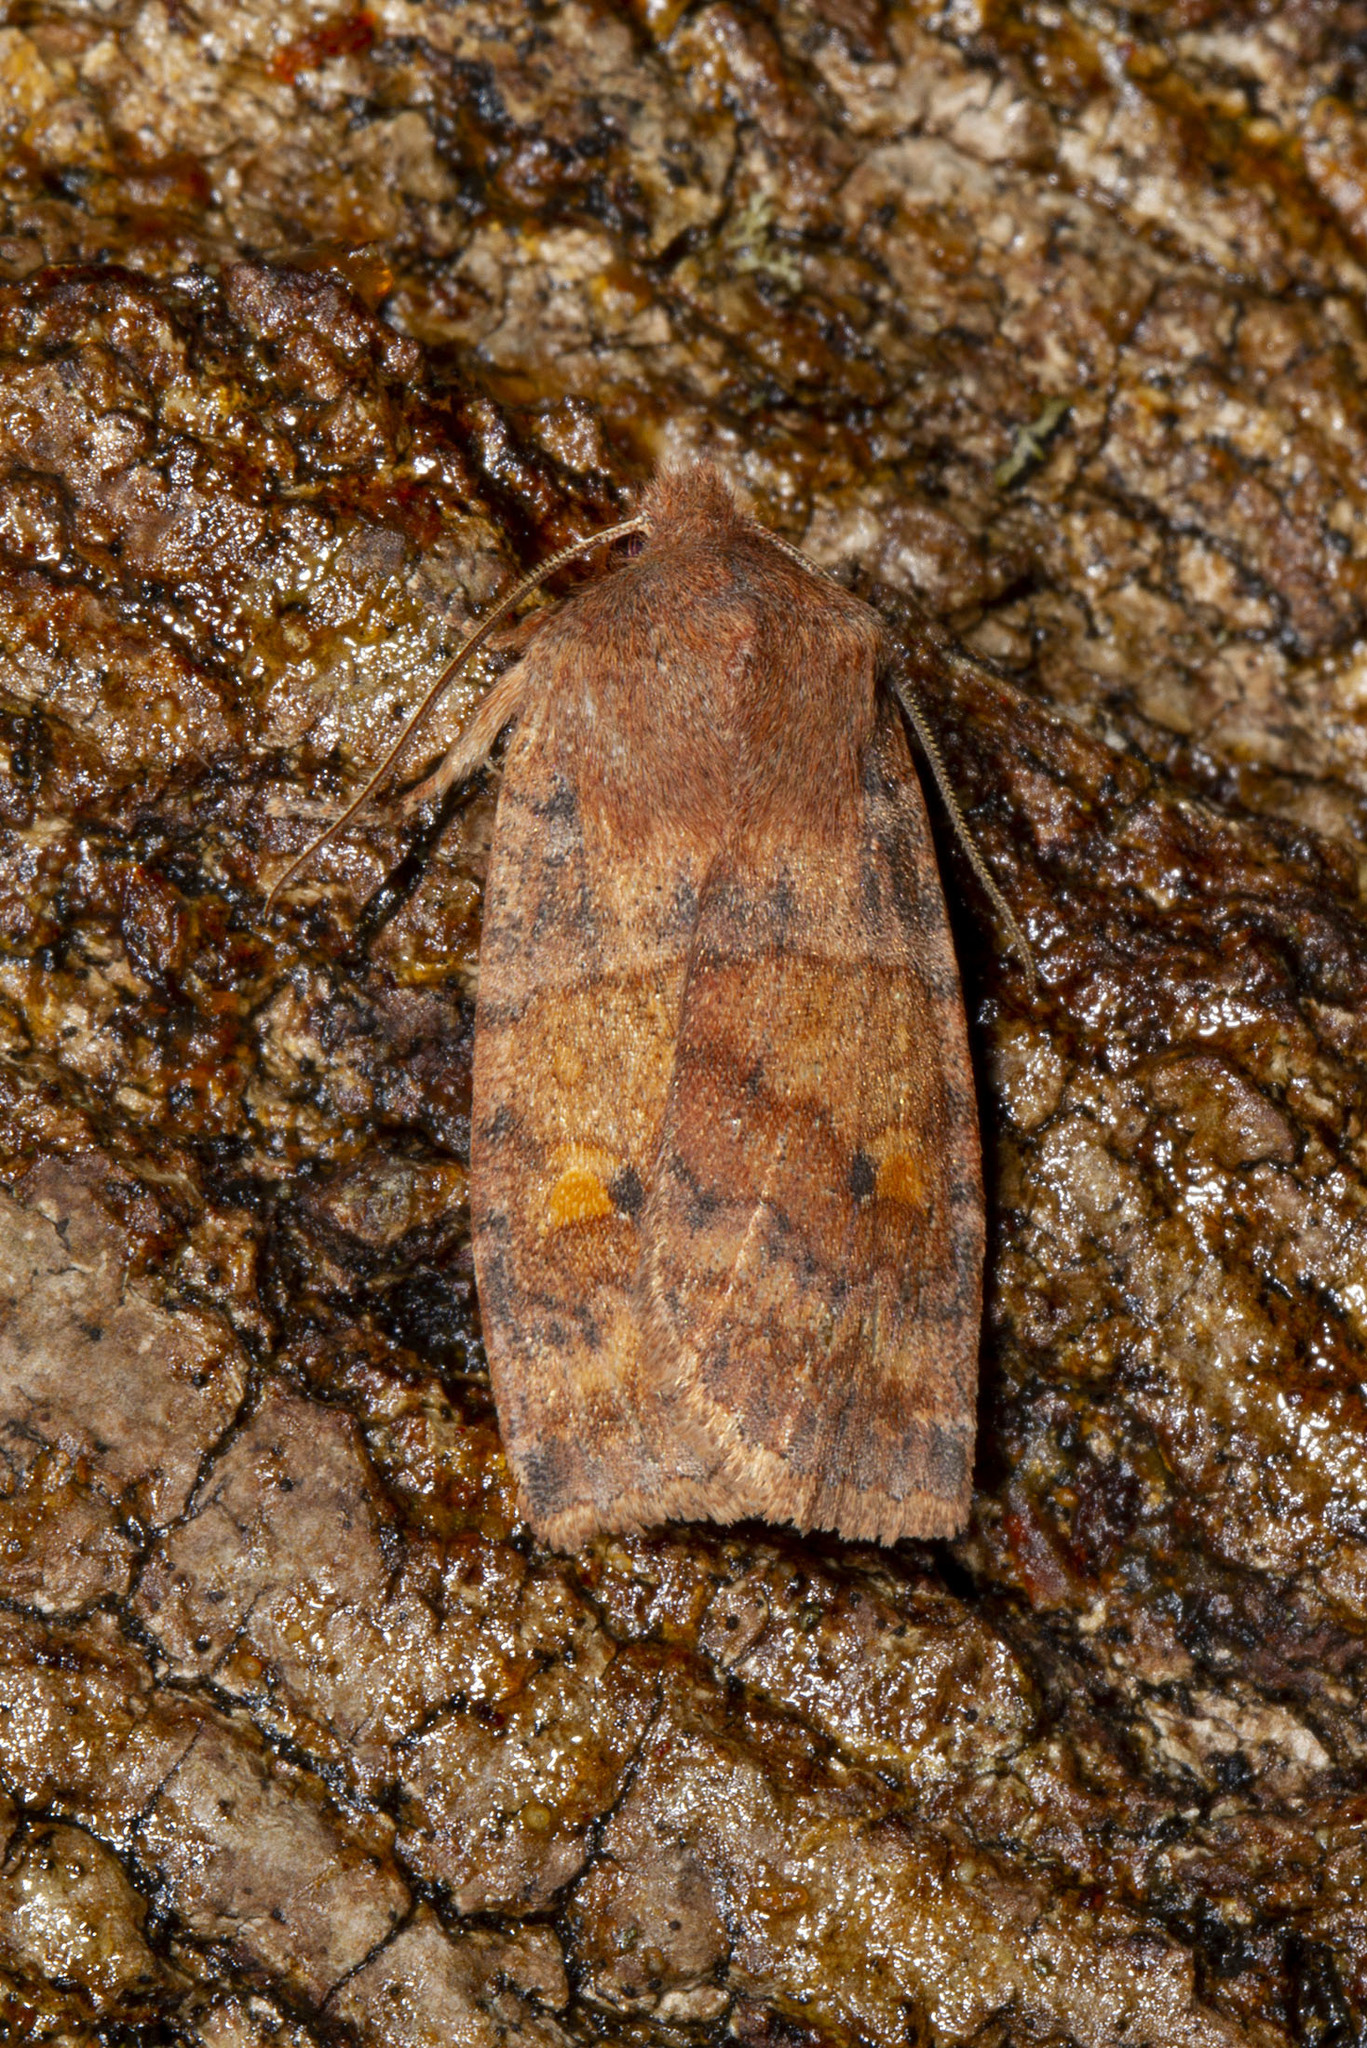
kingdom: Animalia
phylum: Arthropoda
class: Insecta
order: Lepidoptera
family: Noctuidae
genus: Eupsilia
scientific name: Eupsilia tristigmata
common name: Three-spotted sallow
